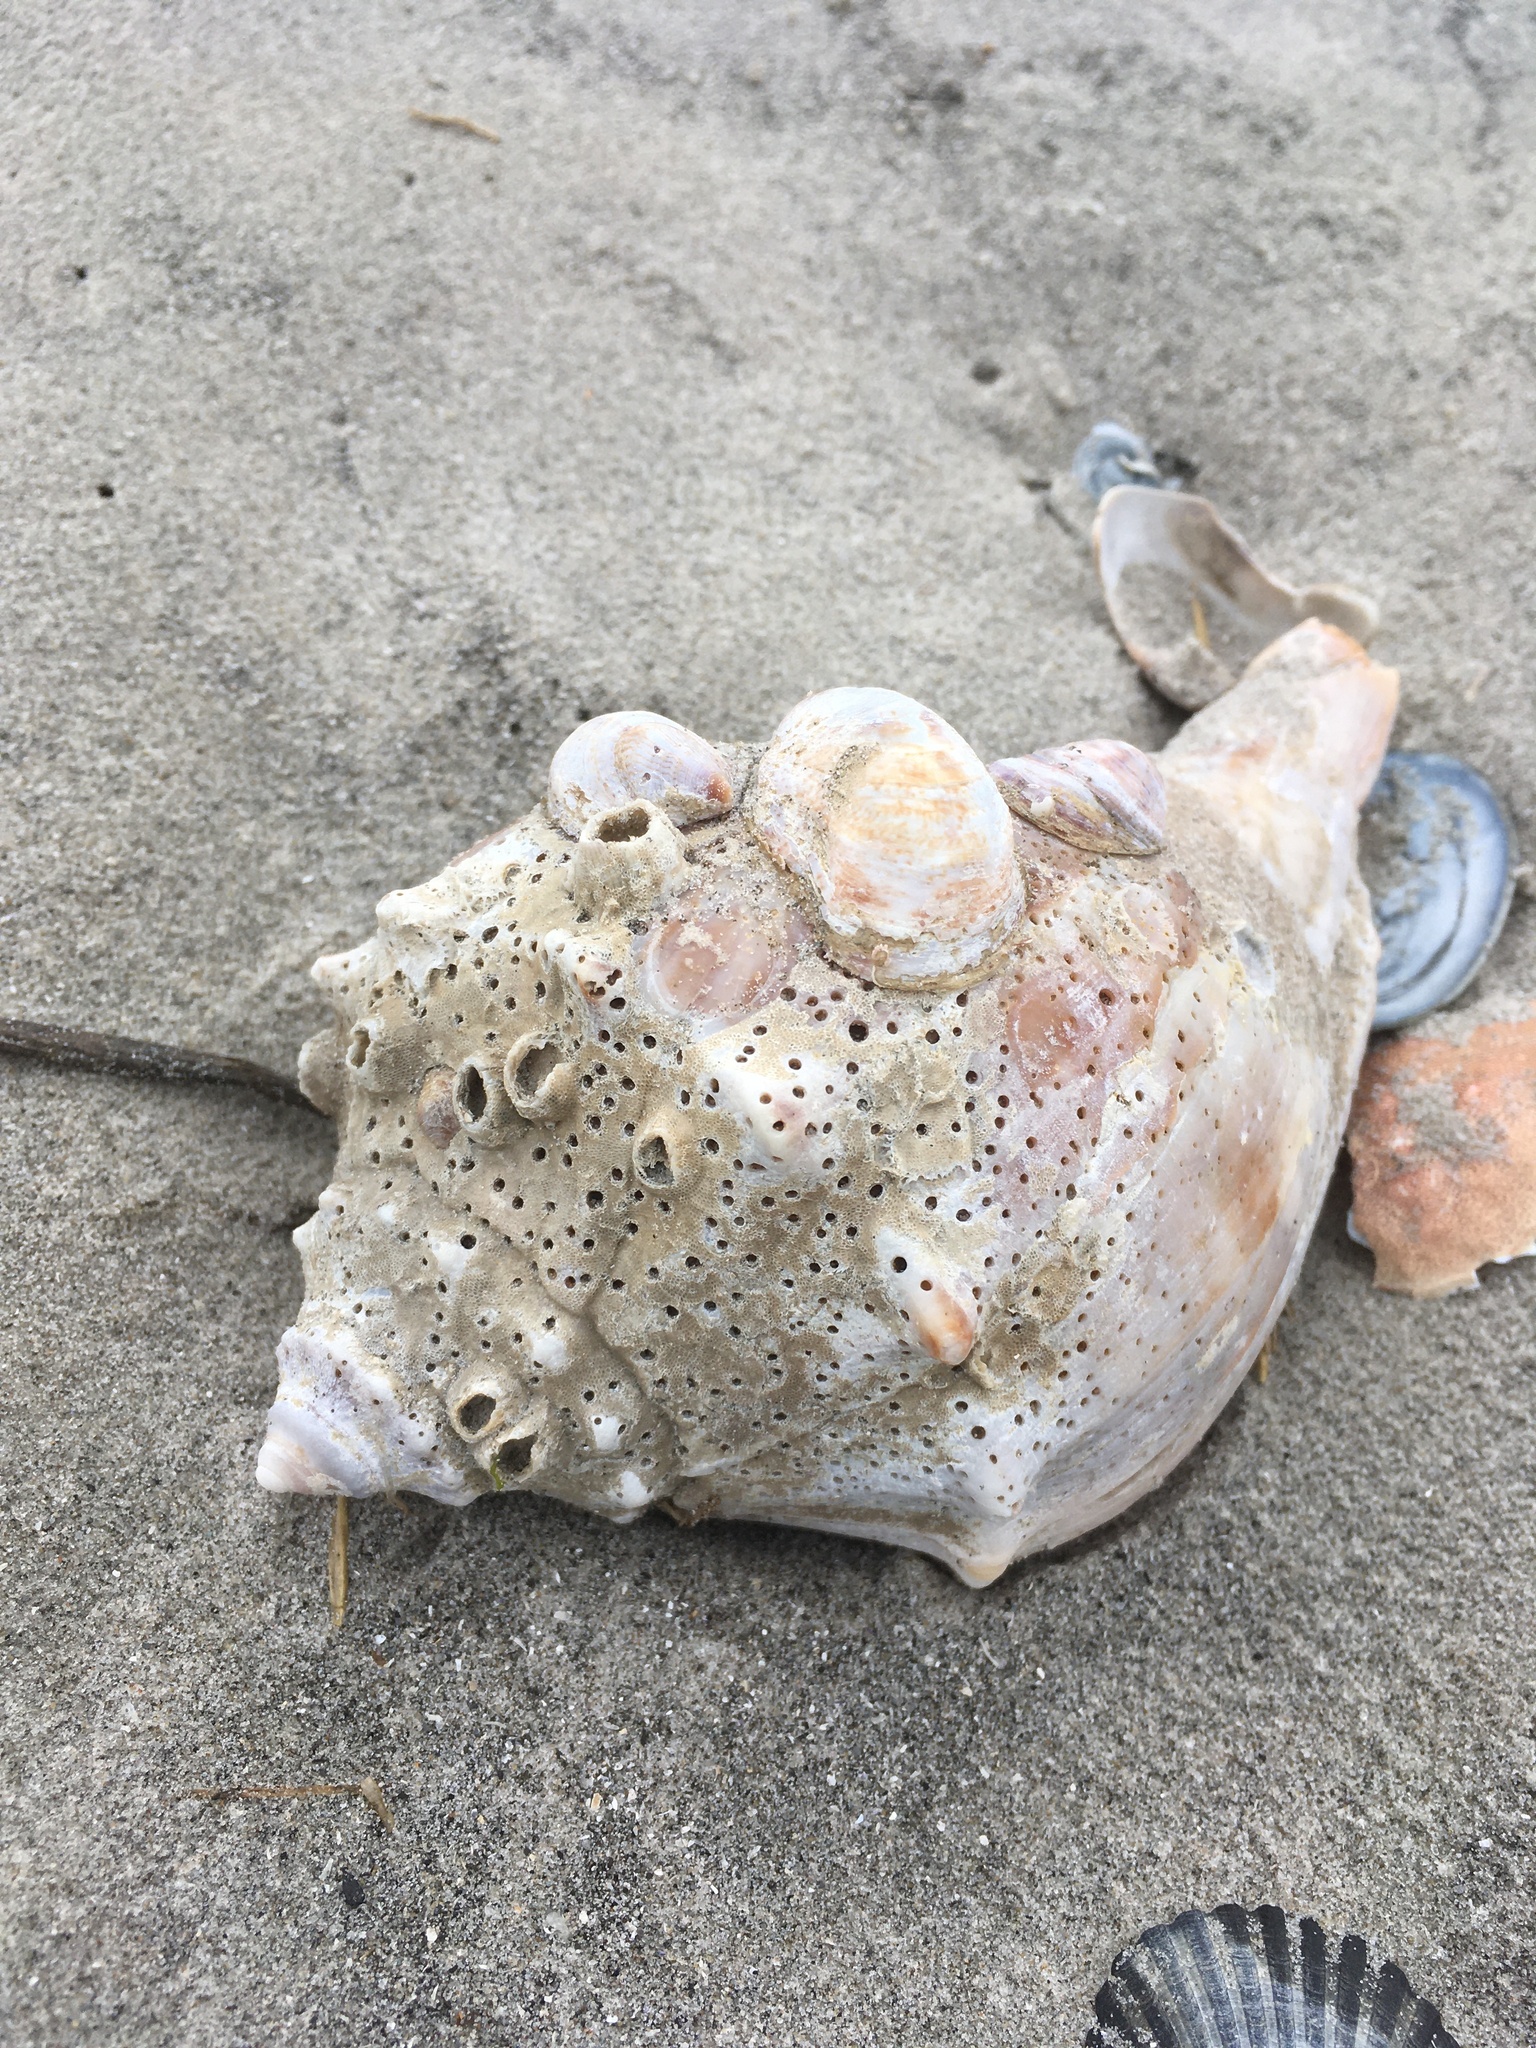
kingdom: Animalia
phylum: Mollusca
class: Gastropoda
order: Neogastropoda
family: Busyconidae
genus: Busycon
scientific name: Busycon carica
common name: Knobbed whelk
